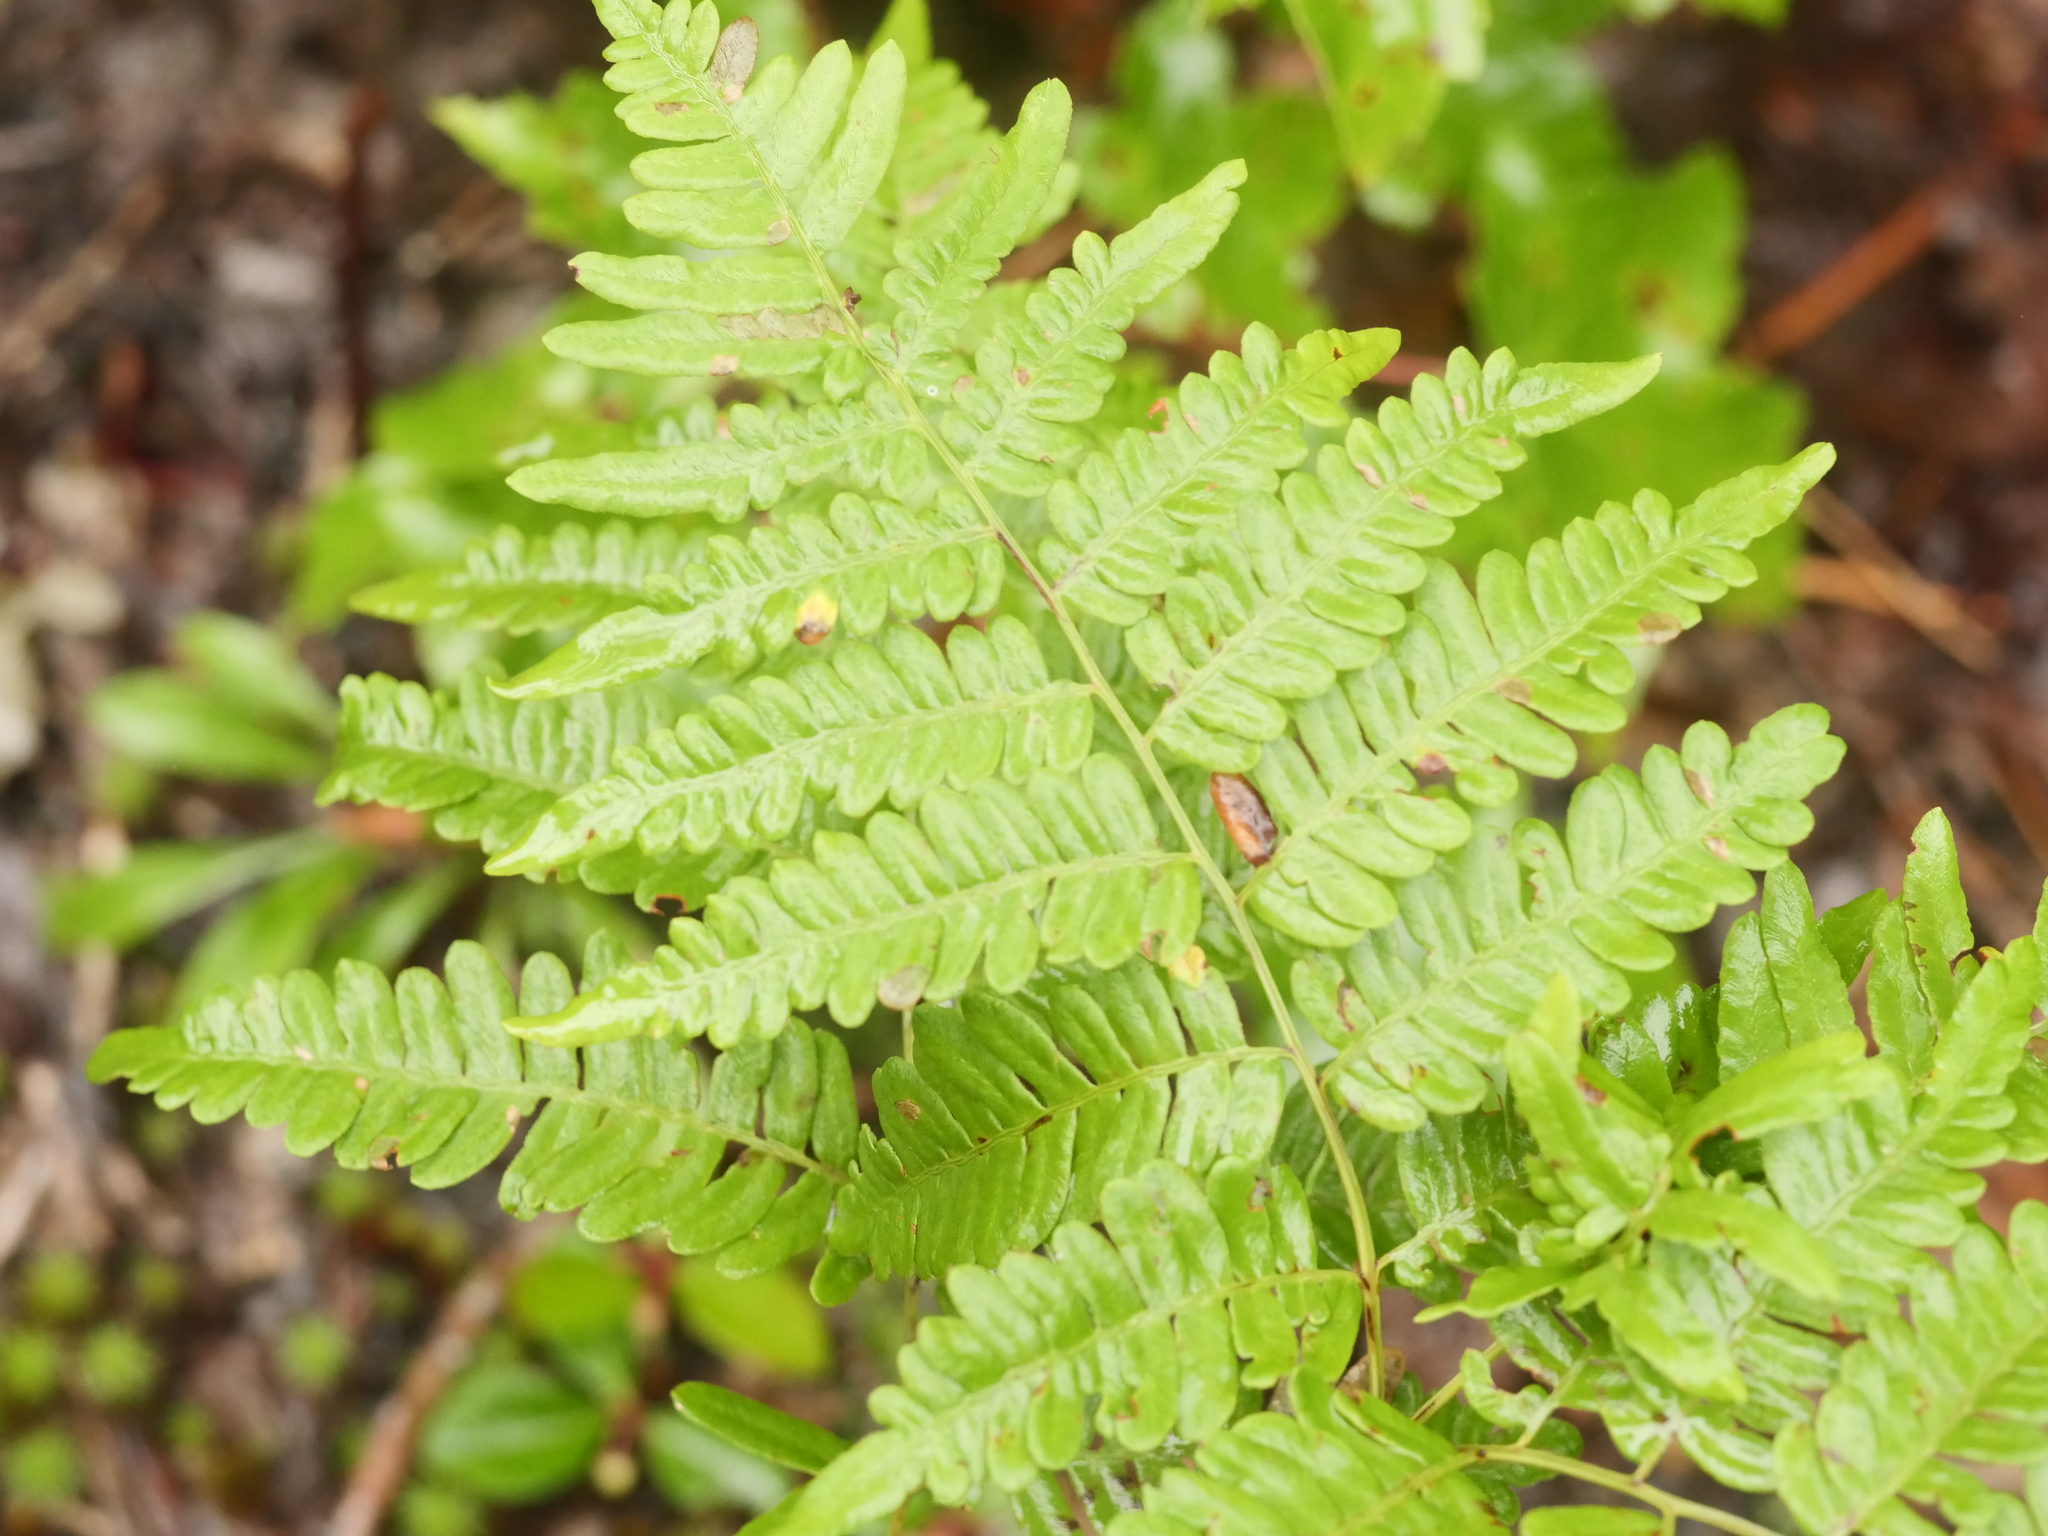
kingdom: Plantae
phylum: Tracheophyta
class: Polypodiopsida
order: Polypodiales
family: Dennstaedtiaceae
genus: Pteridium
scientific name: Pteridium aquilinum
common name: Bracken
